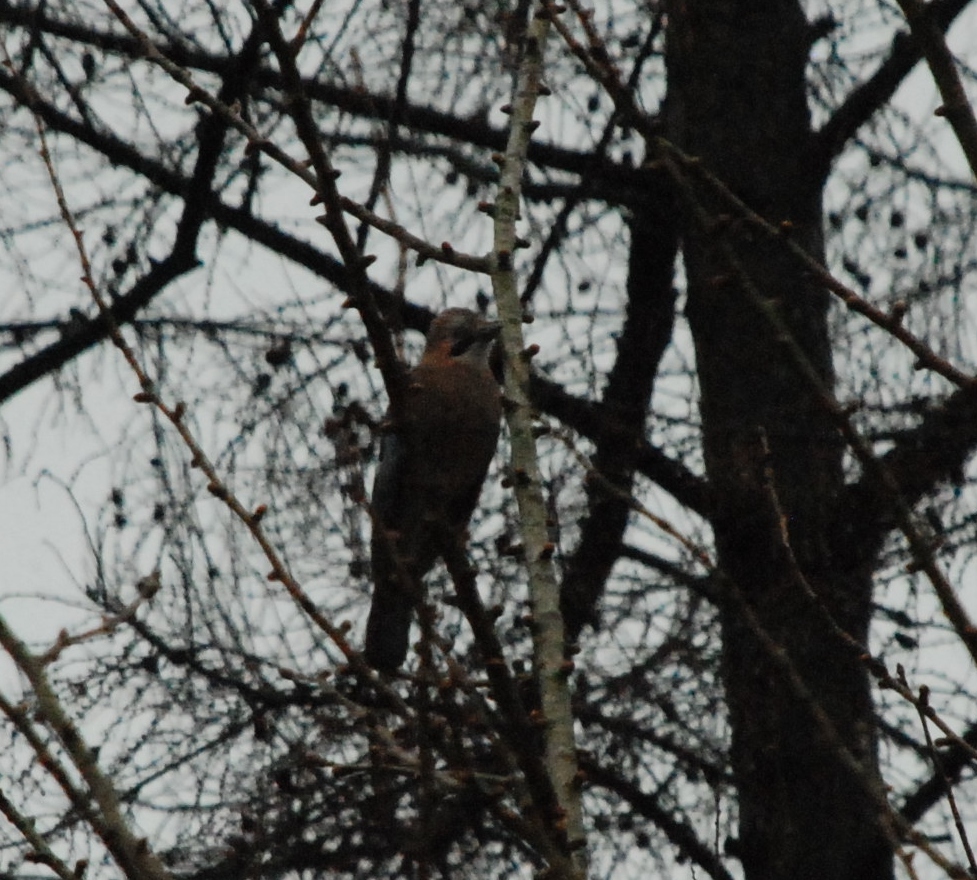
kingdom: Animalia
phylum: Chordata
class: Aves
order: Passeriformes
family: Corvidae
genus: Garrulus
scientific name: Garrulus glandarius
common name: Eurasian jay
